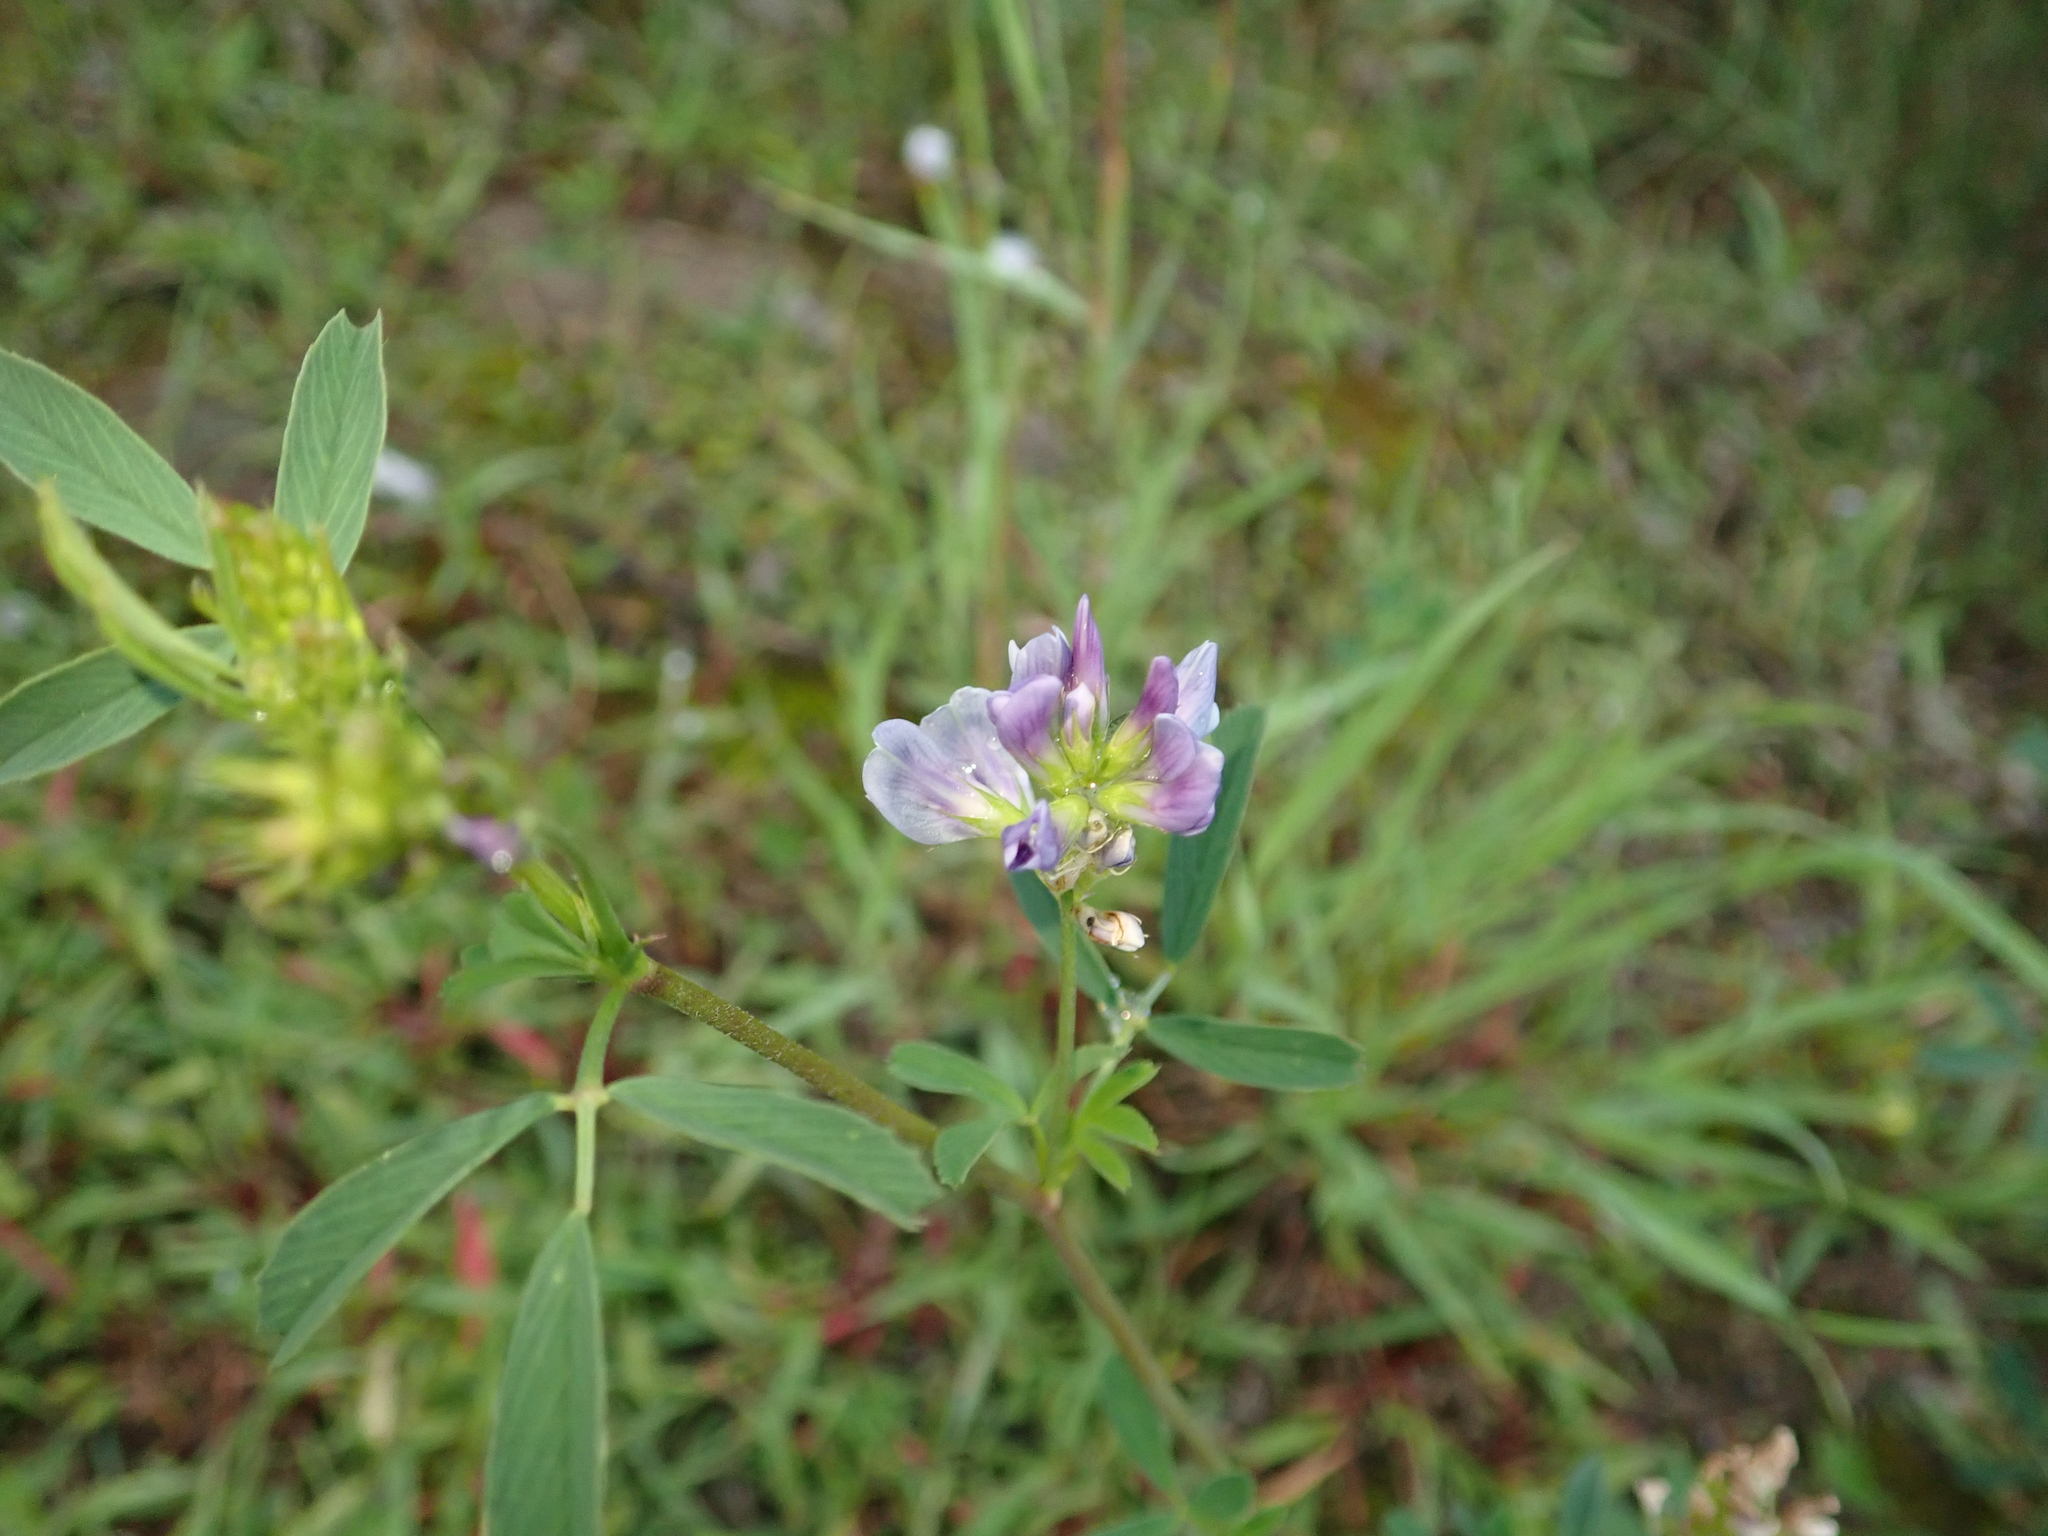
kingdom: Plantae
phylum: Tracheophyta
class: Magnoliopsida
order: Fabales
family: Fabaceae
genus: Medicago
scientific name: Medicago varia
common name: Sand lucerne
